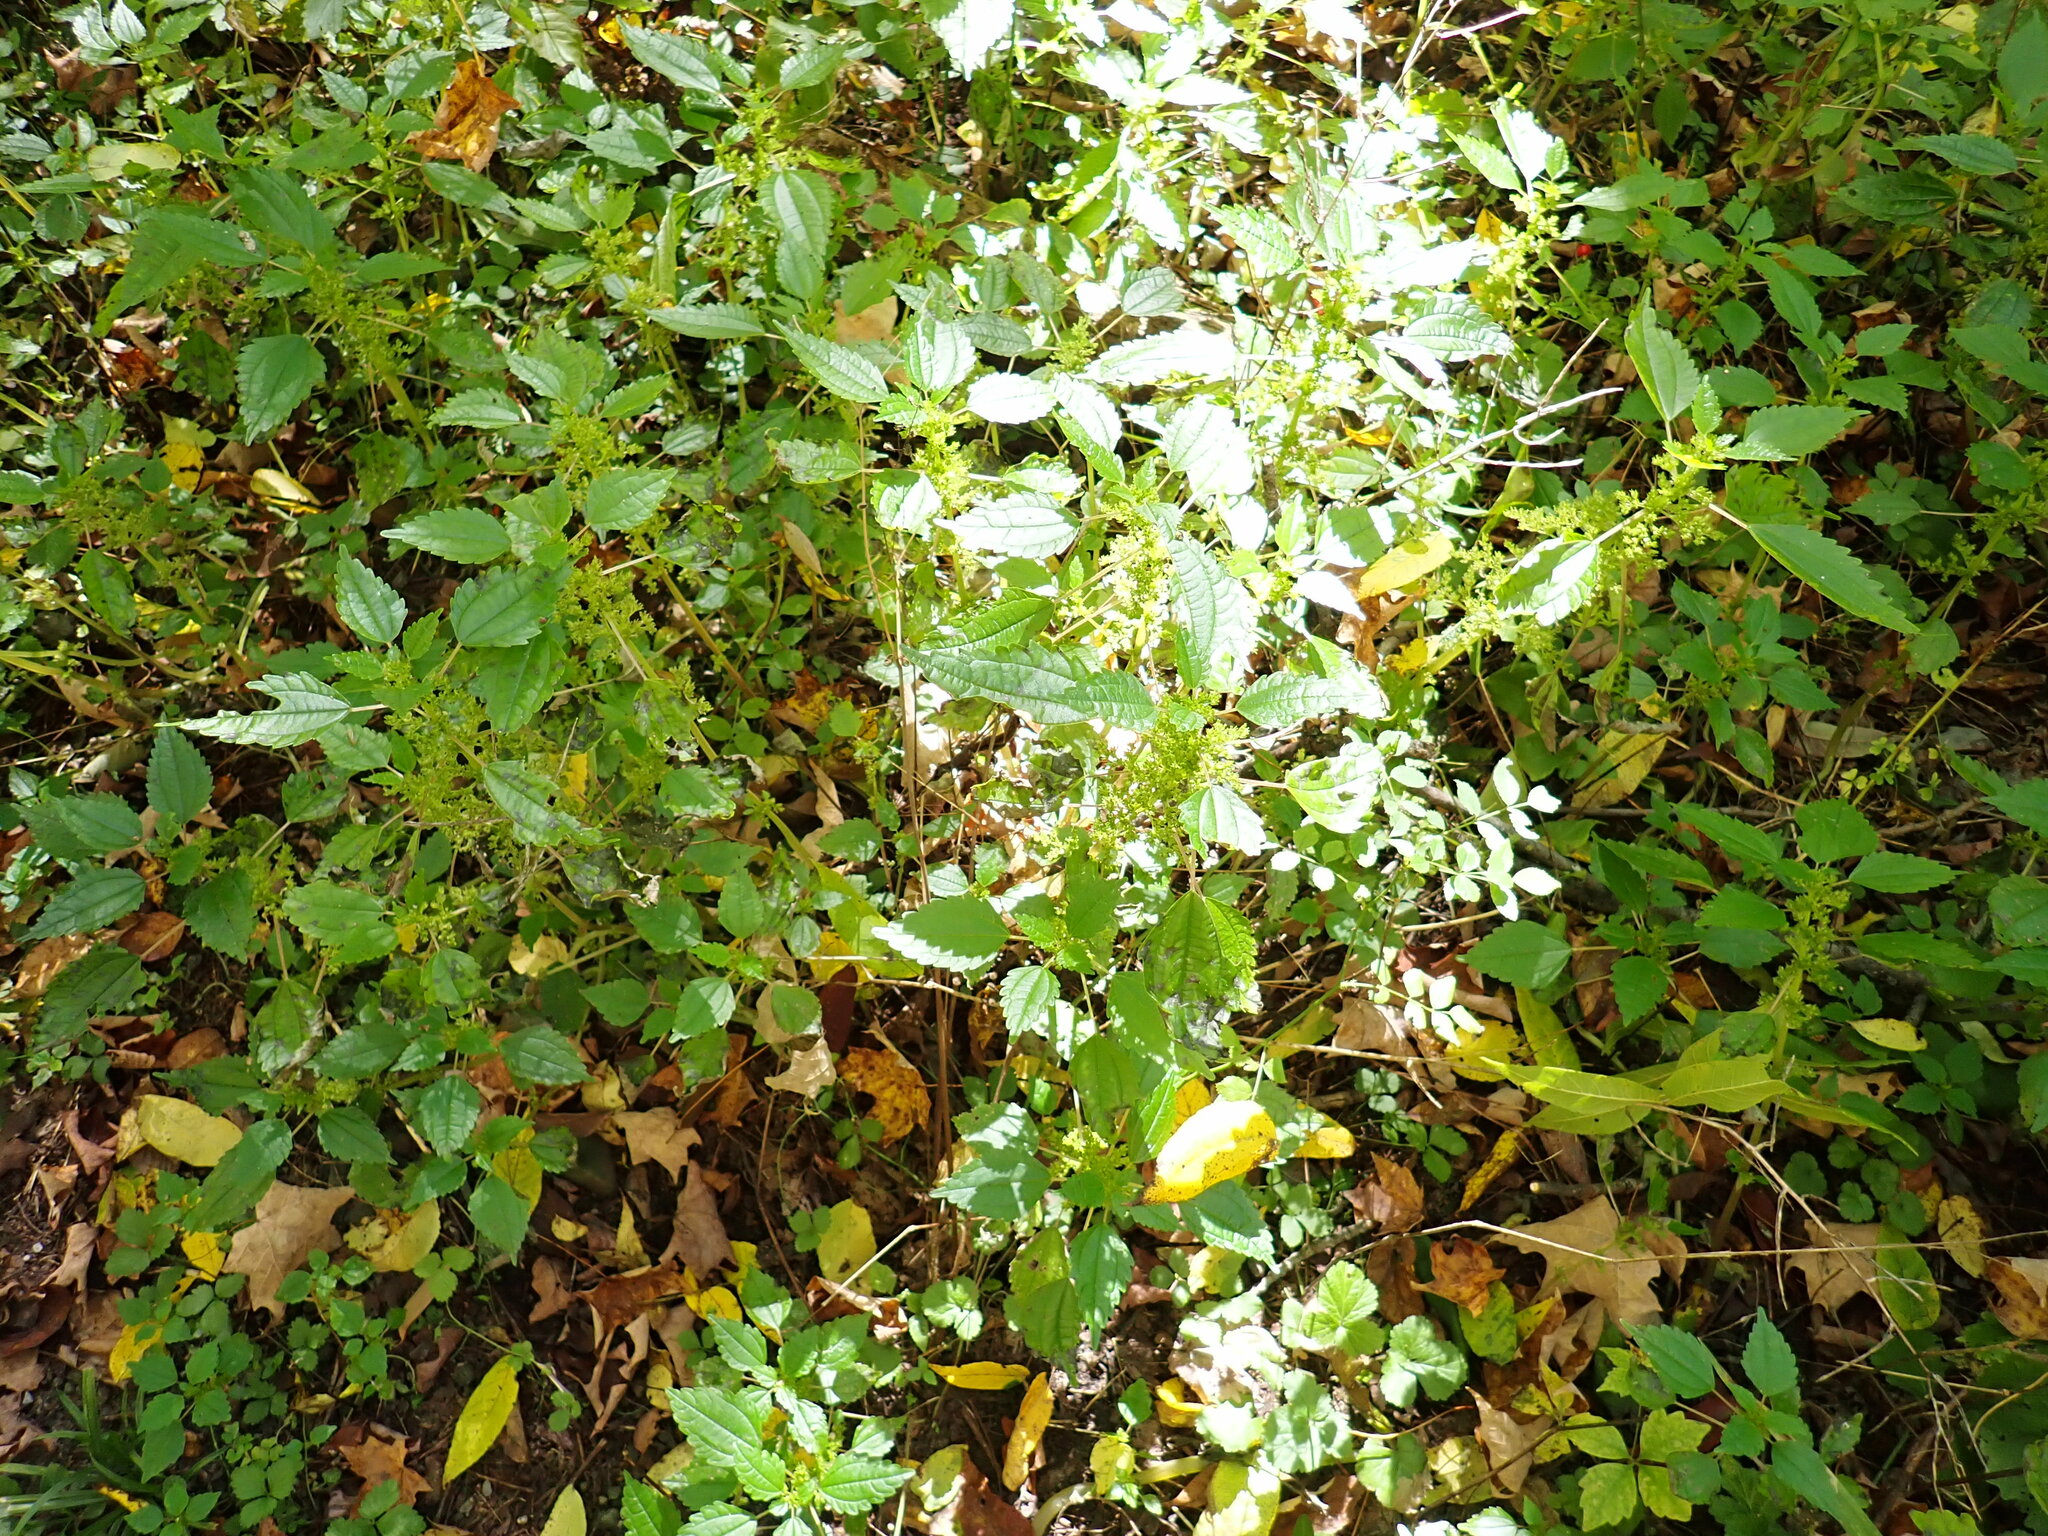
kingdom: Plantae
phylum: Tracheophyta
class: Magnoliopsida
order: Rosales
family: Urticaceae
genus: Pilea
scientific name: Pilea pumila
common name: Clearweed
